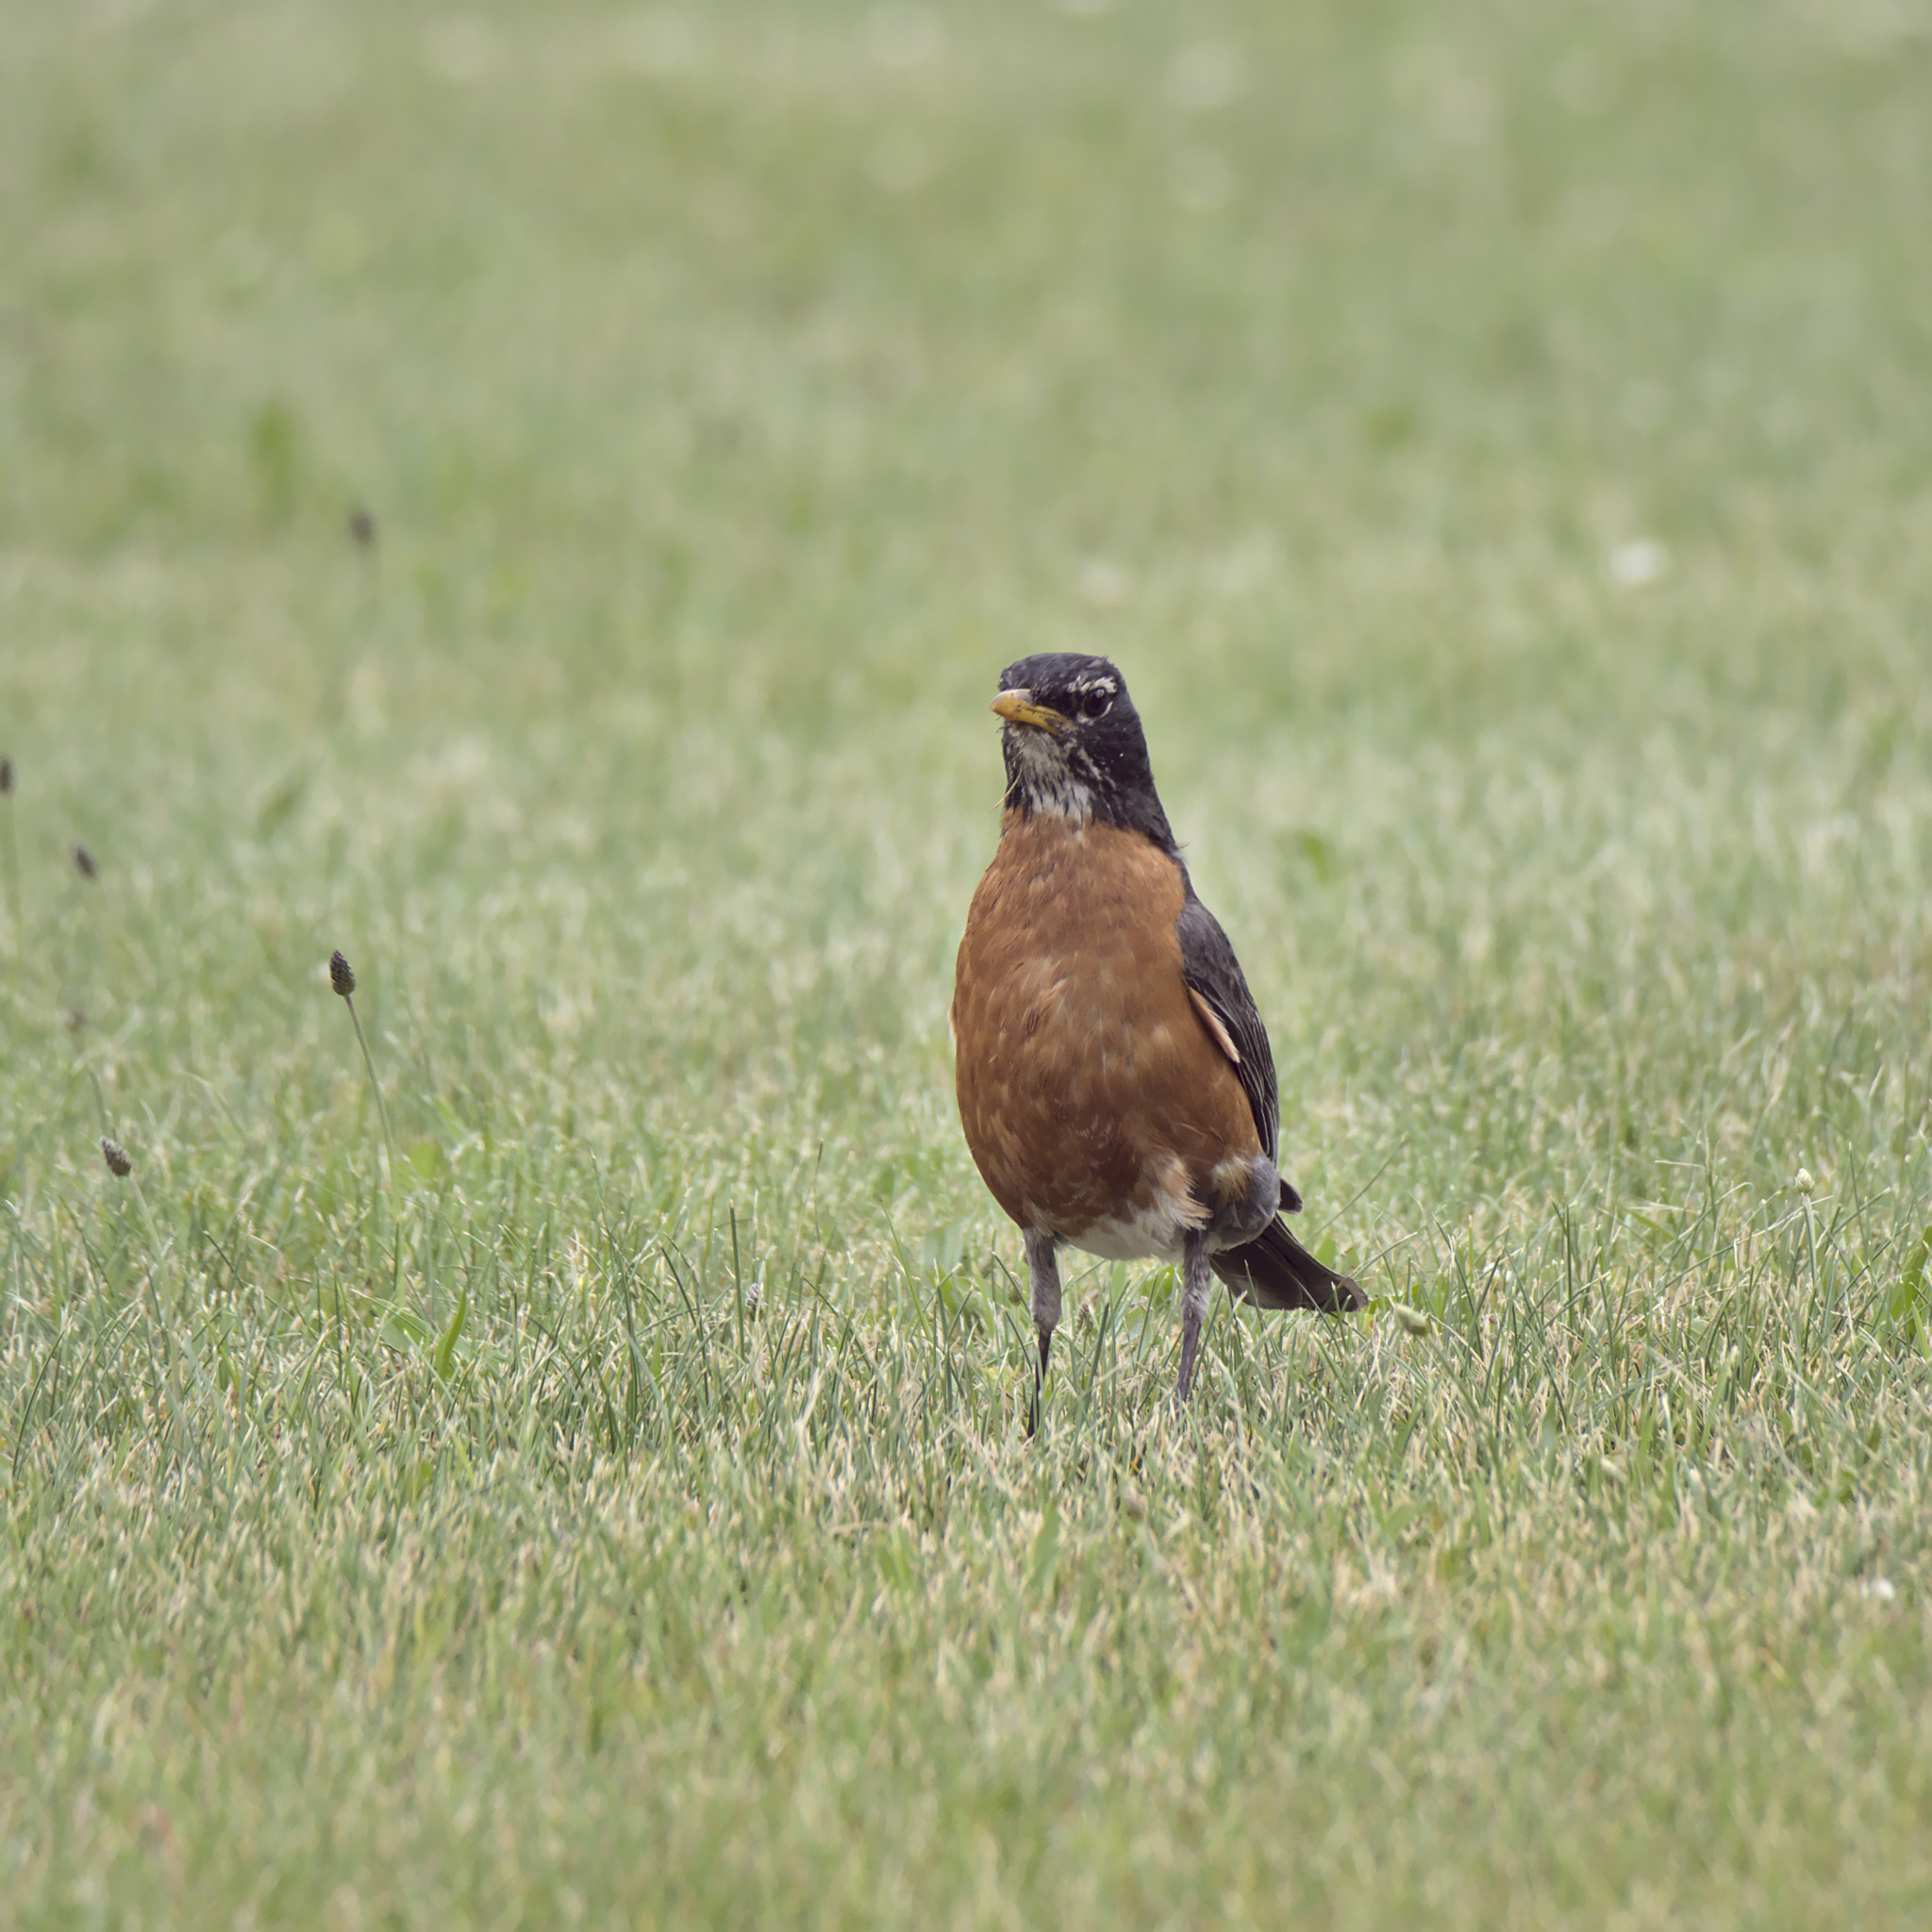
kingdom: Animalia
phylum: Chordata
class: Aves
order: Passeriformes
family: Turdidae
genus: Turdus
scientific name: Turdus migratorius
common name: American robin
